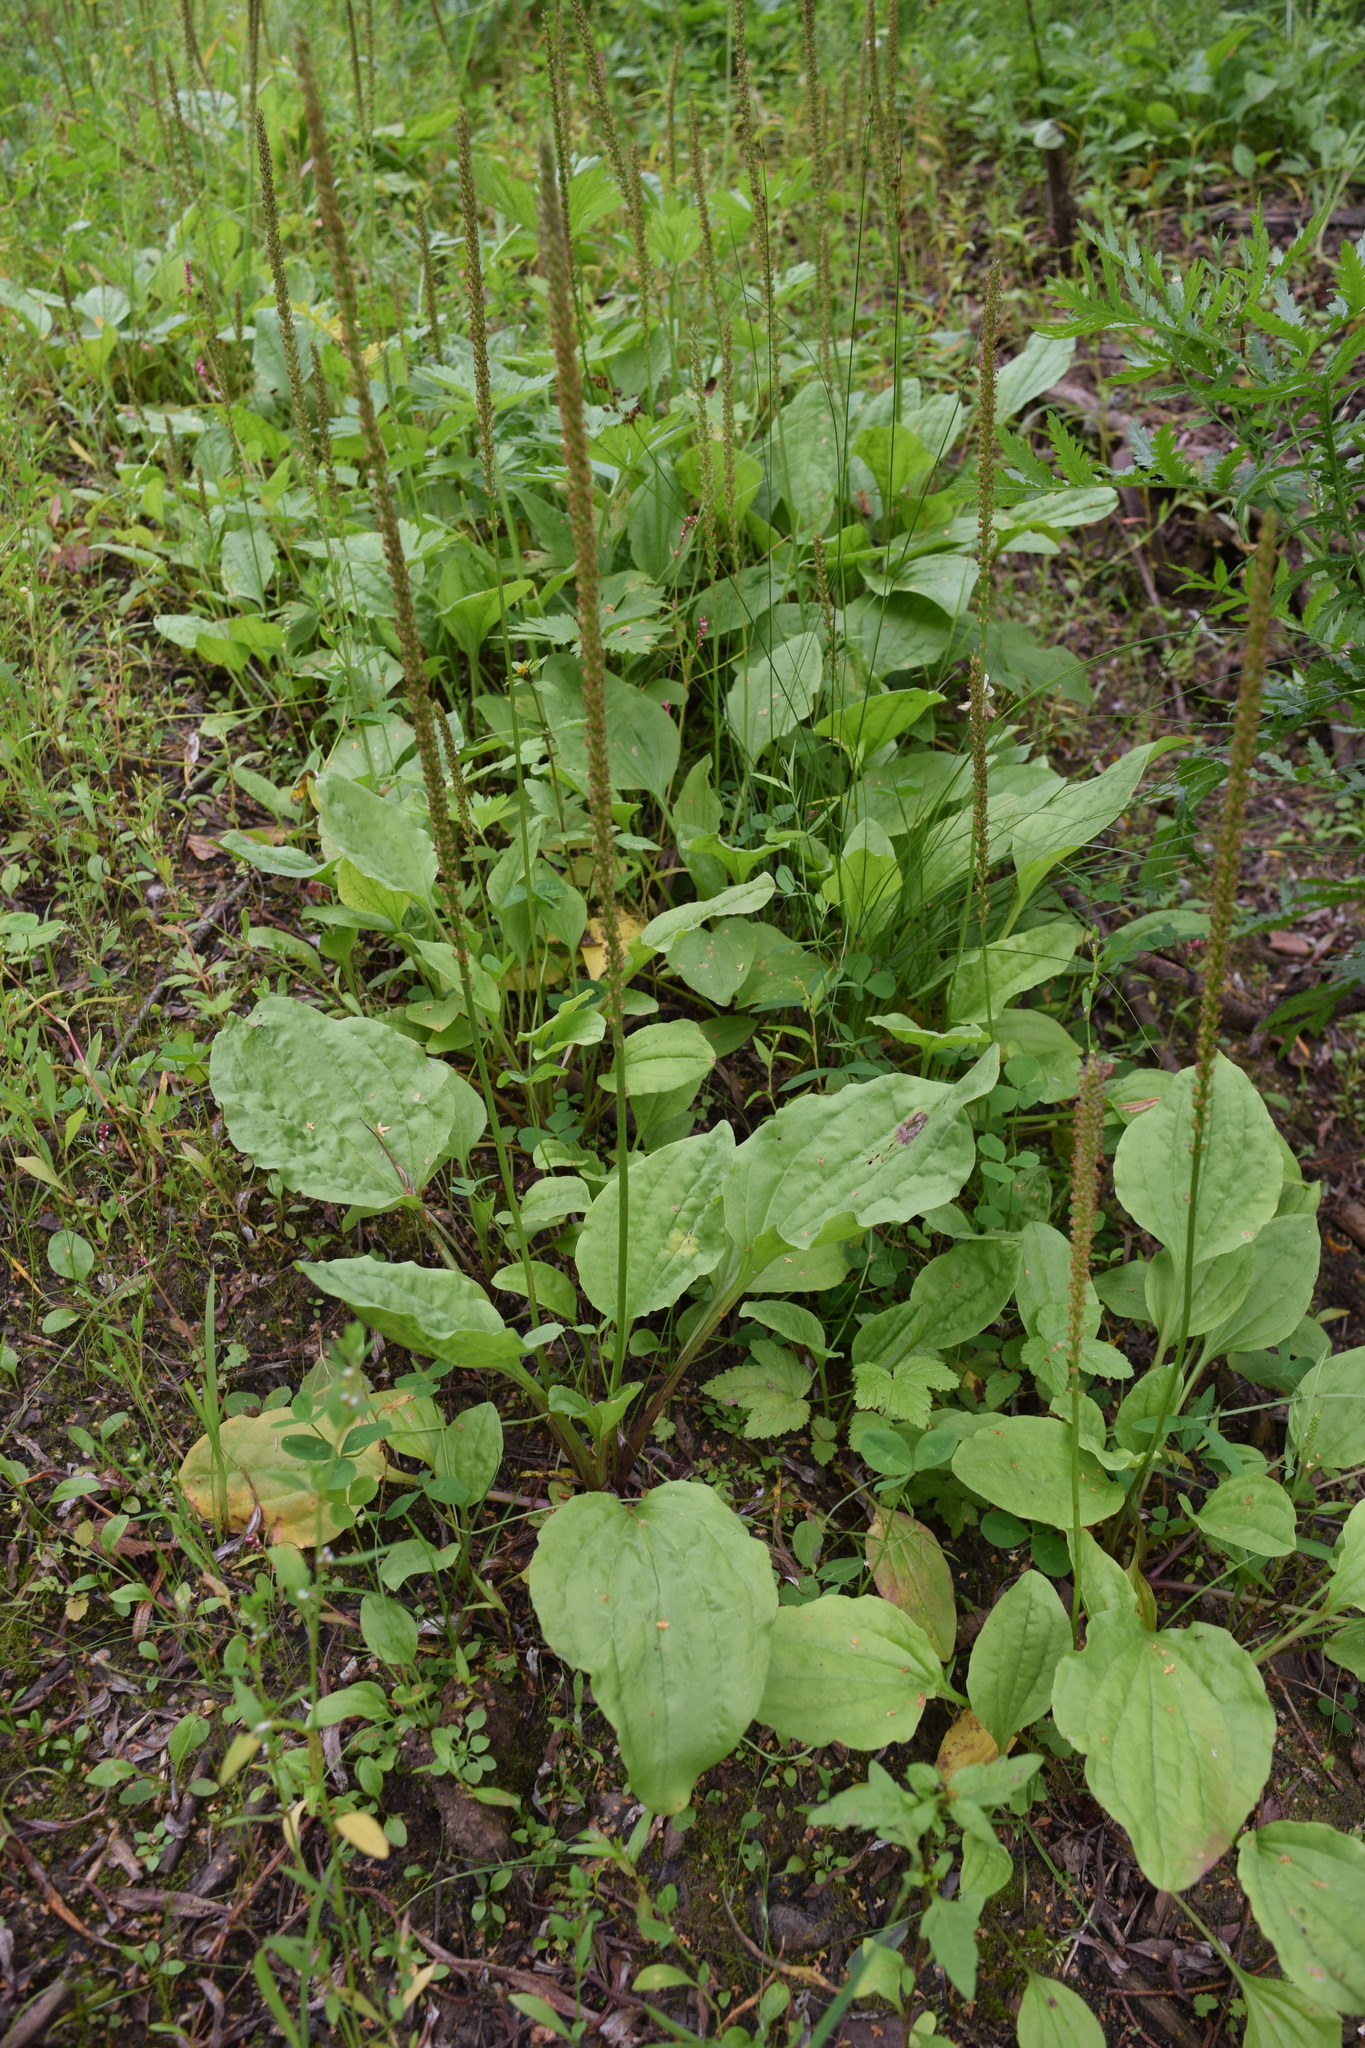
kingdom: Plantae
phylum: Tracheophyta
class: Magnoliopsida
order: Lamiales
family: Plantaginaceae
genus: Plantago
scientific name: Plantago major
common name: Common plantain
